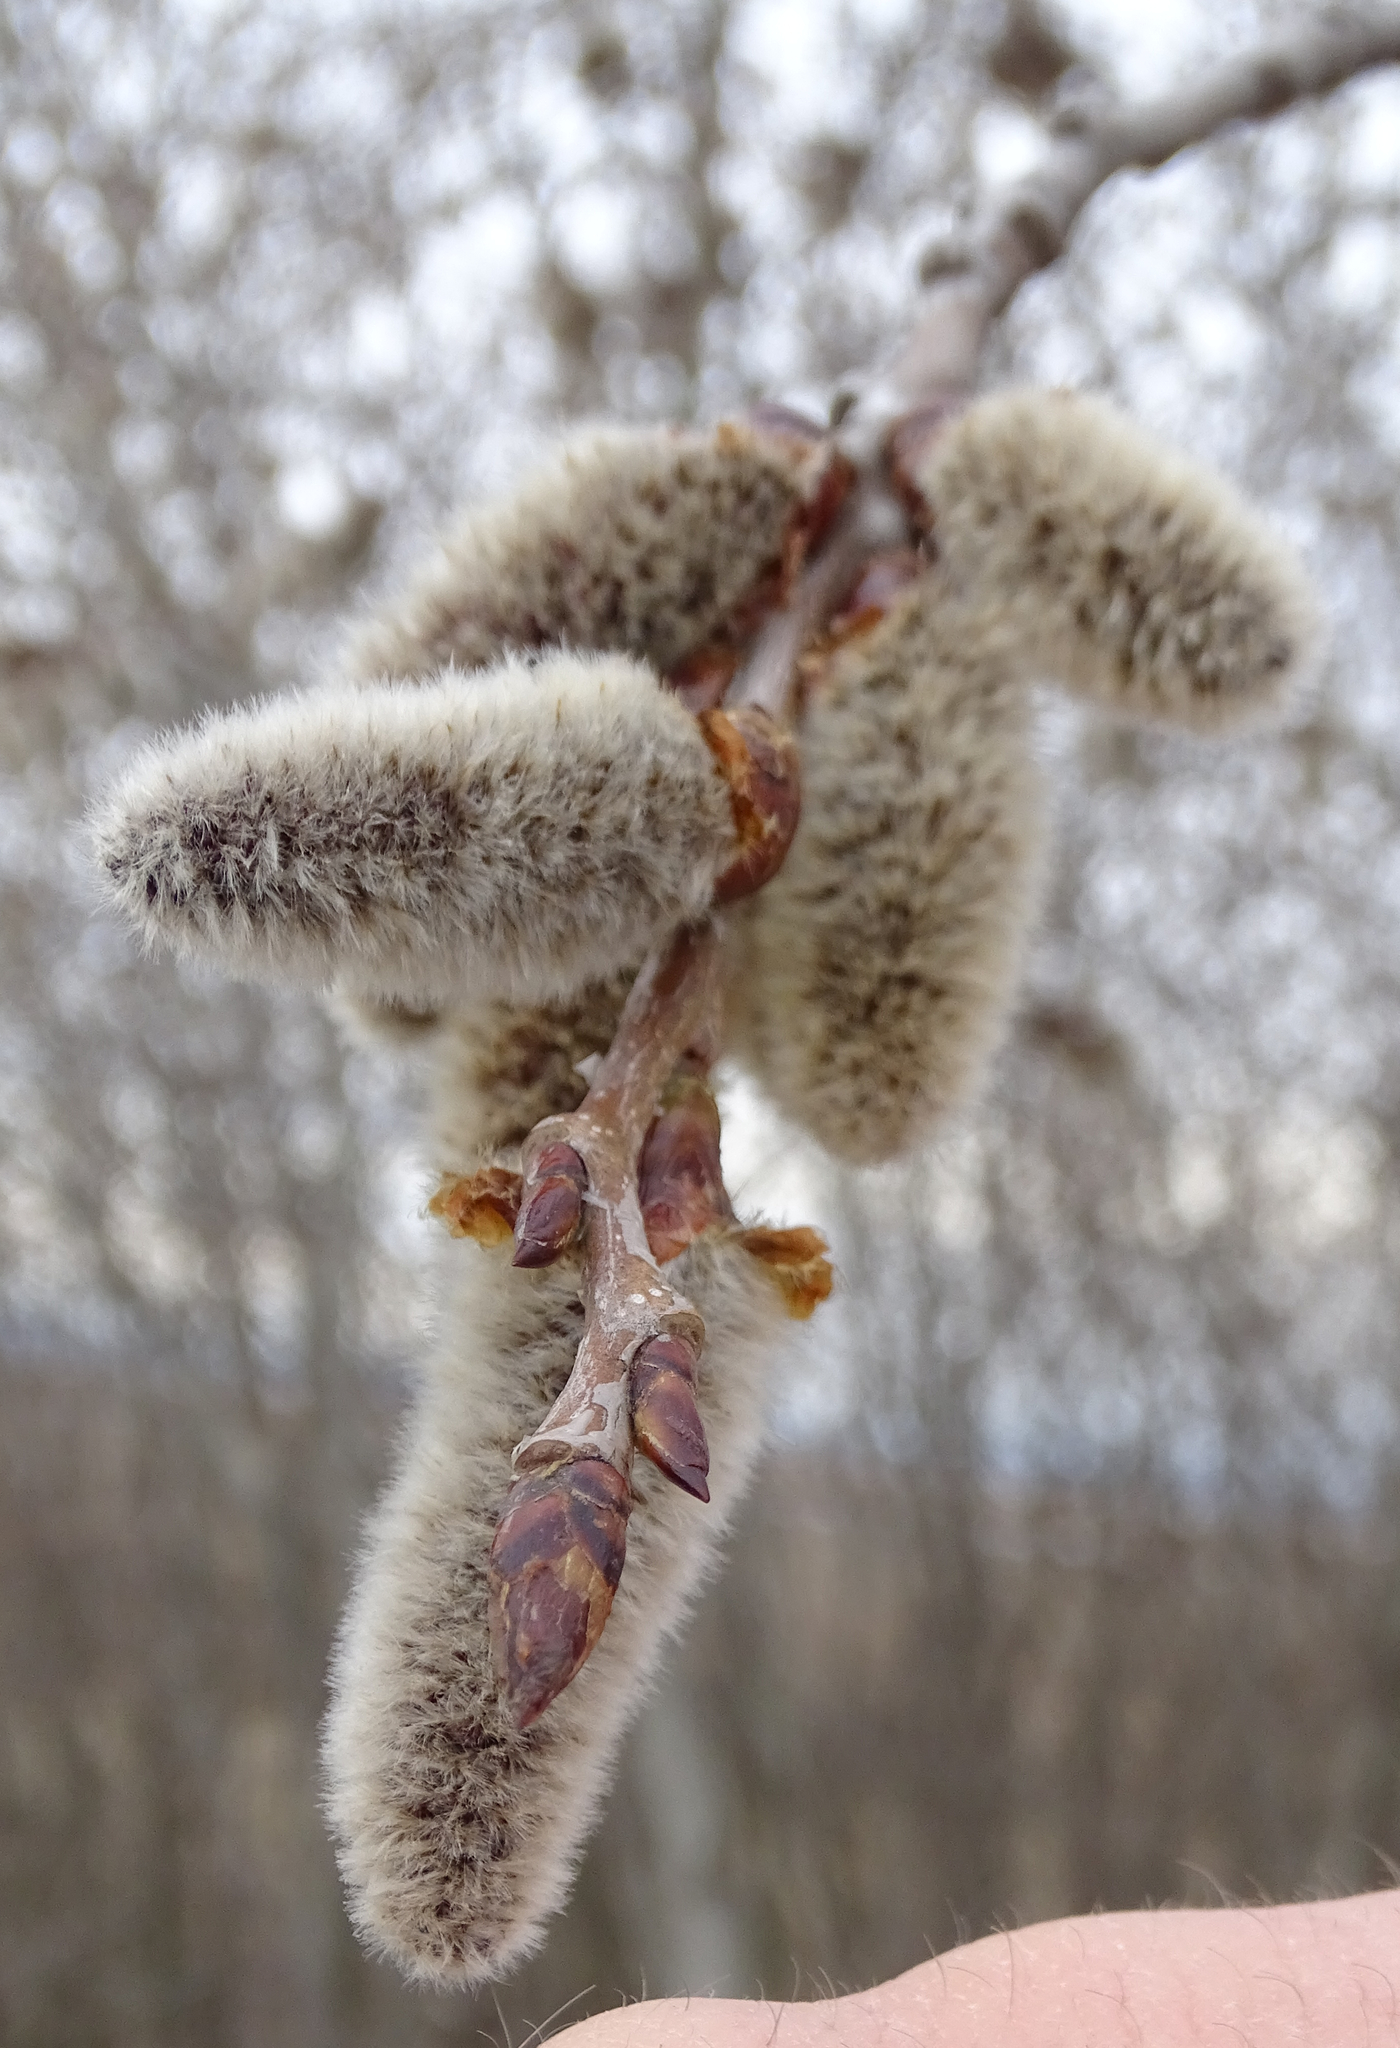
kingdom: Plantae
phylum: Tracheophyta
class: Magnoliopsida
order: Malpighiales
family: Salicaceae
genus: Populus
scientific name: Populus tremula
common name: European aspen
